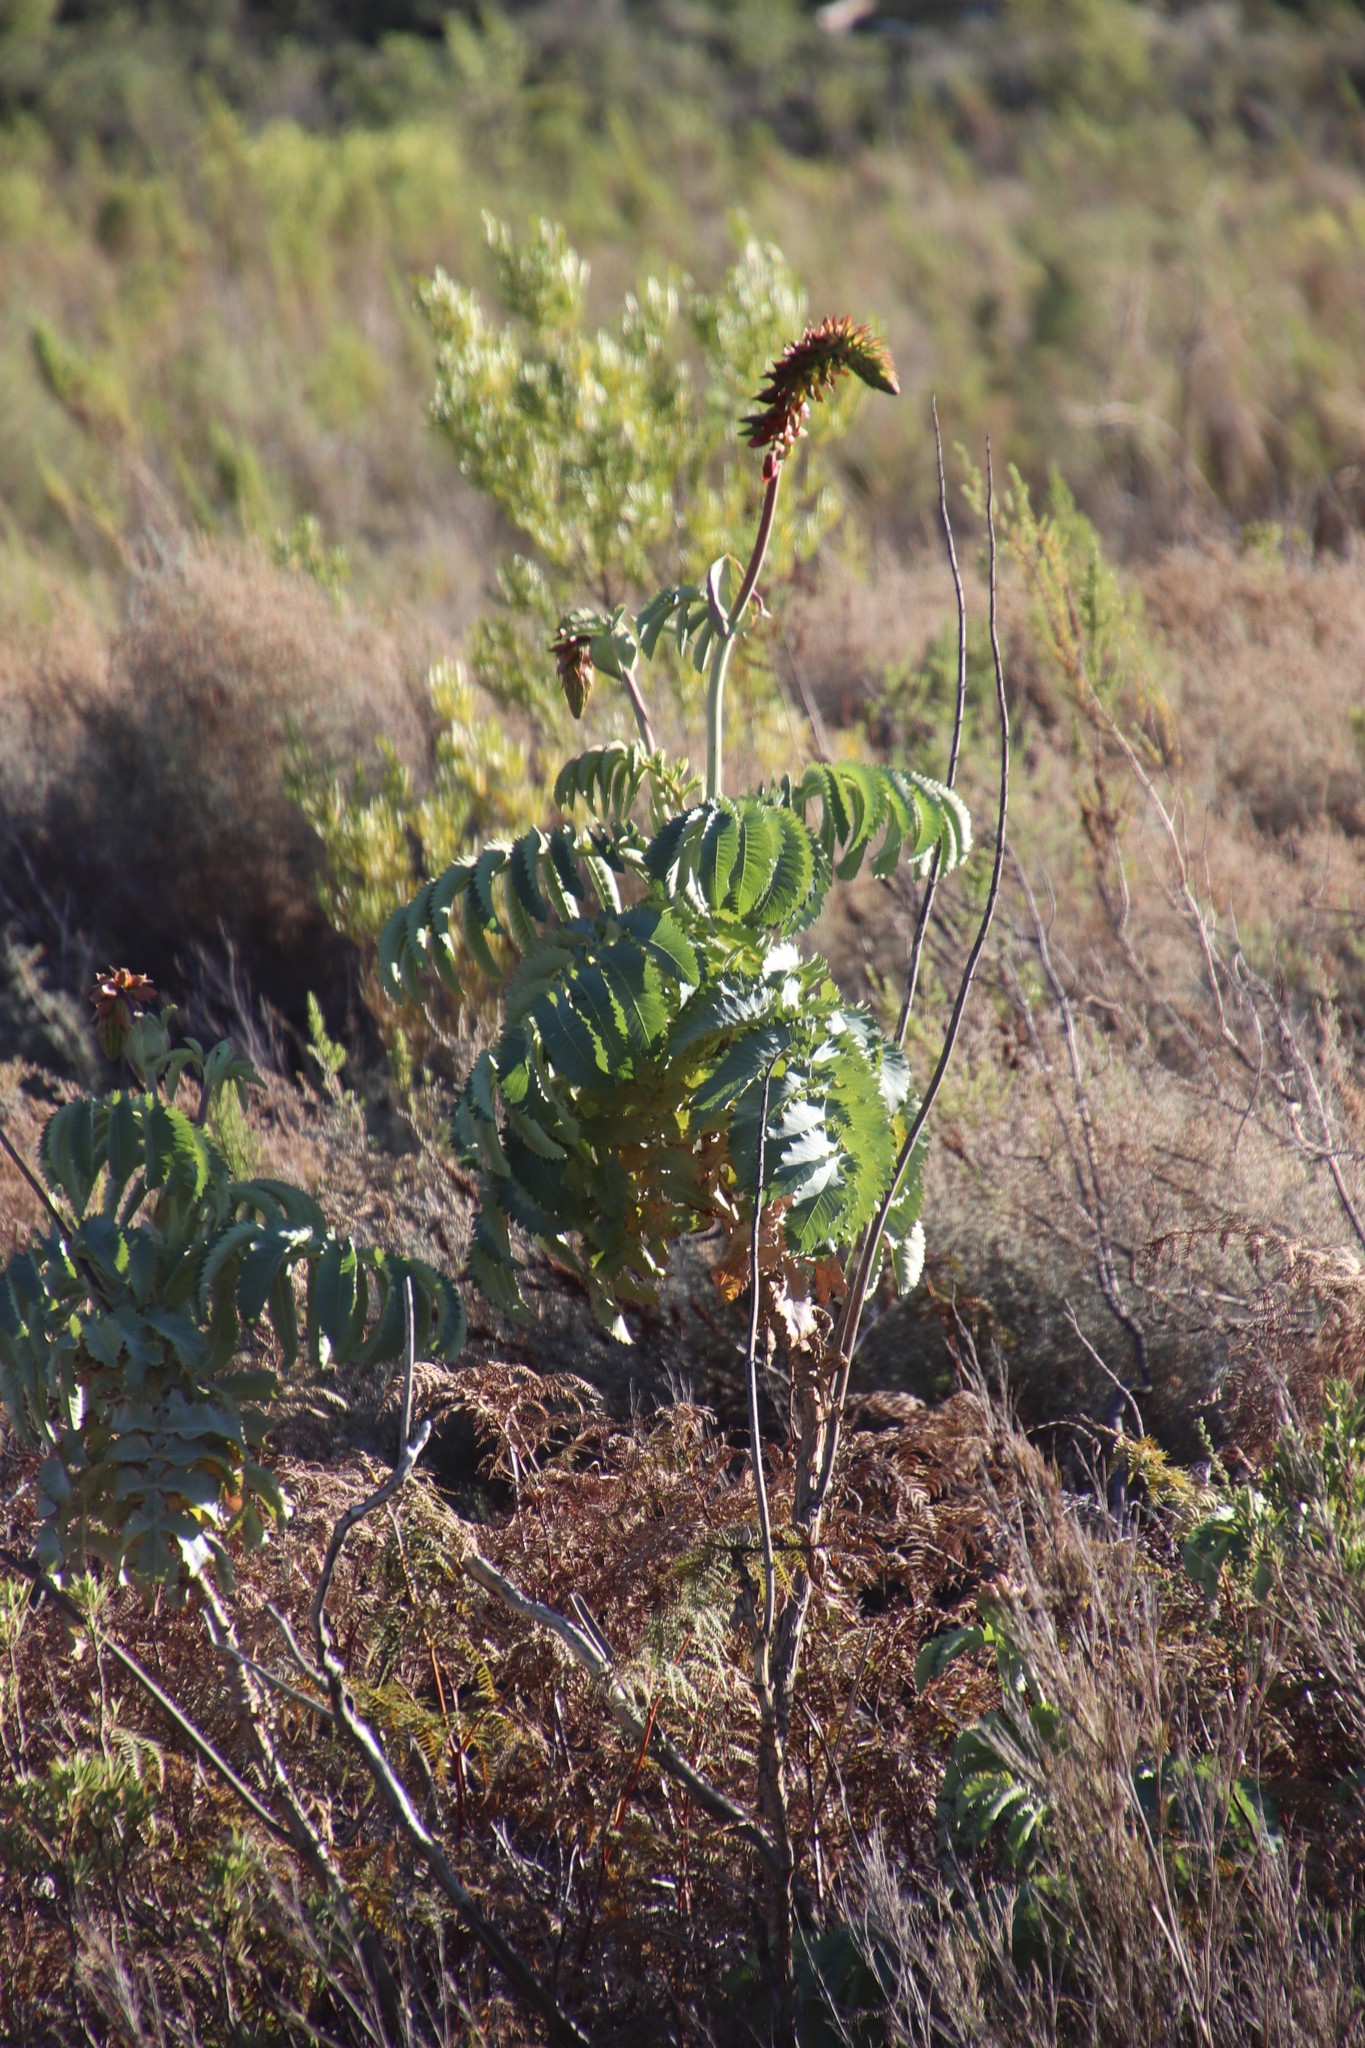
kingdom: Plantae
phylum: Tracheophyta
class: Magnoliopsida
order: Geraniales
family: Melianthaceae
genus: Melianthus
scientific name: Melianthus major
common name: Honey-flower
